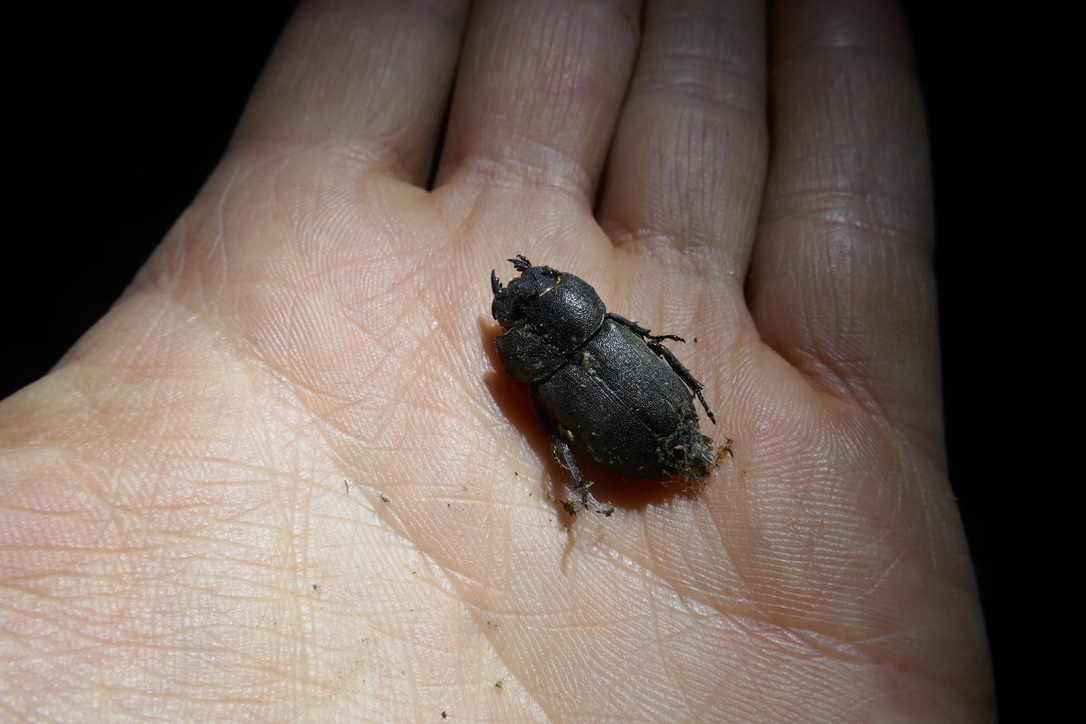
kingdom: Animalia
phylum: Arthropoda
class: Insecta
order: Coleoptera
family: Lucanidae
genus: Dorcus
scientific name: Dorcus parallelipipedus
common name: Lesser stag beetle
